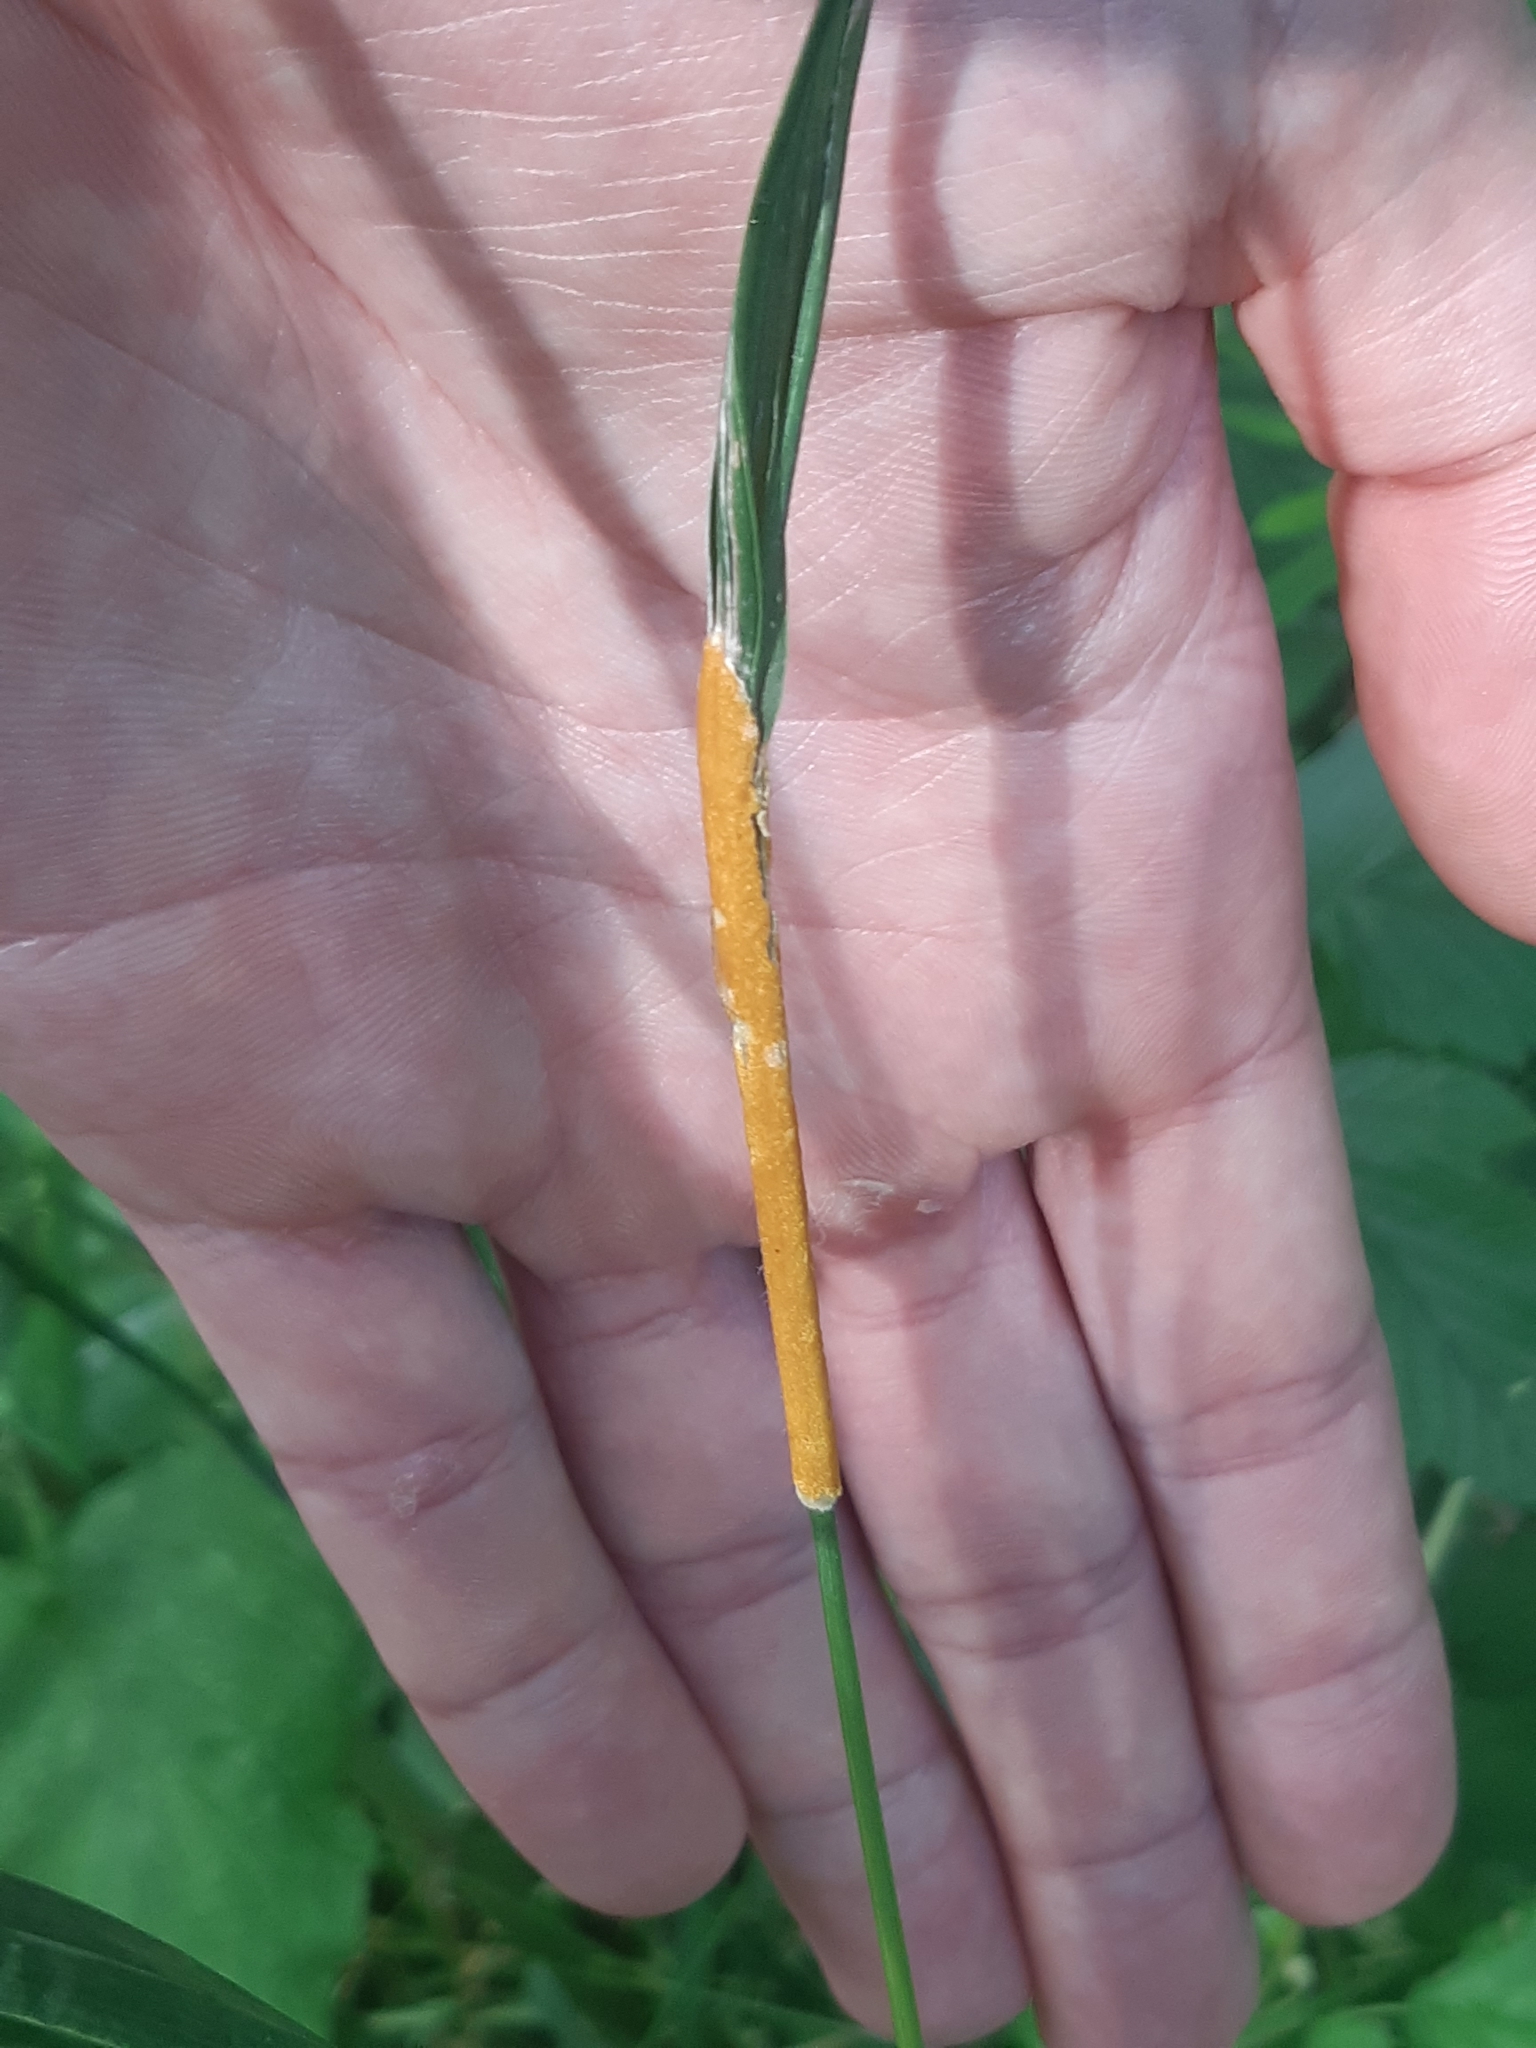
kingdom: Fungi
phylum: Ascomycota
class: Sordariomycetes
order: Hypocreales
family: Clavicipitaceae
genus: Epichloe
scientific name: Epichloe typhina
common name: Choke
